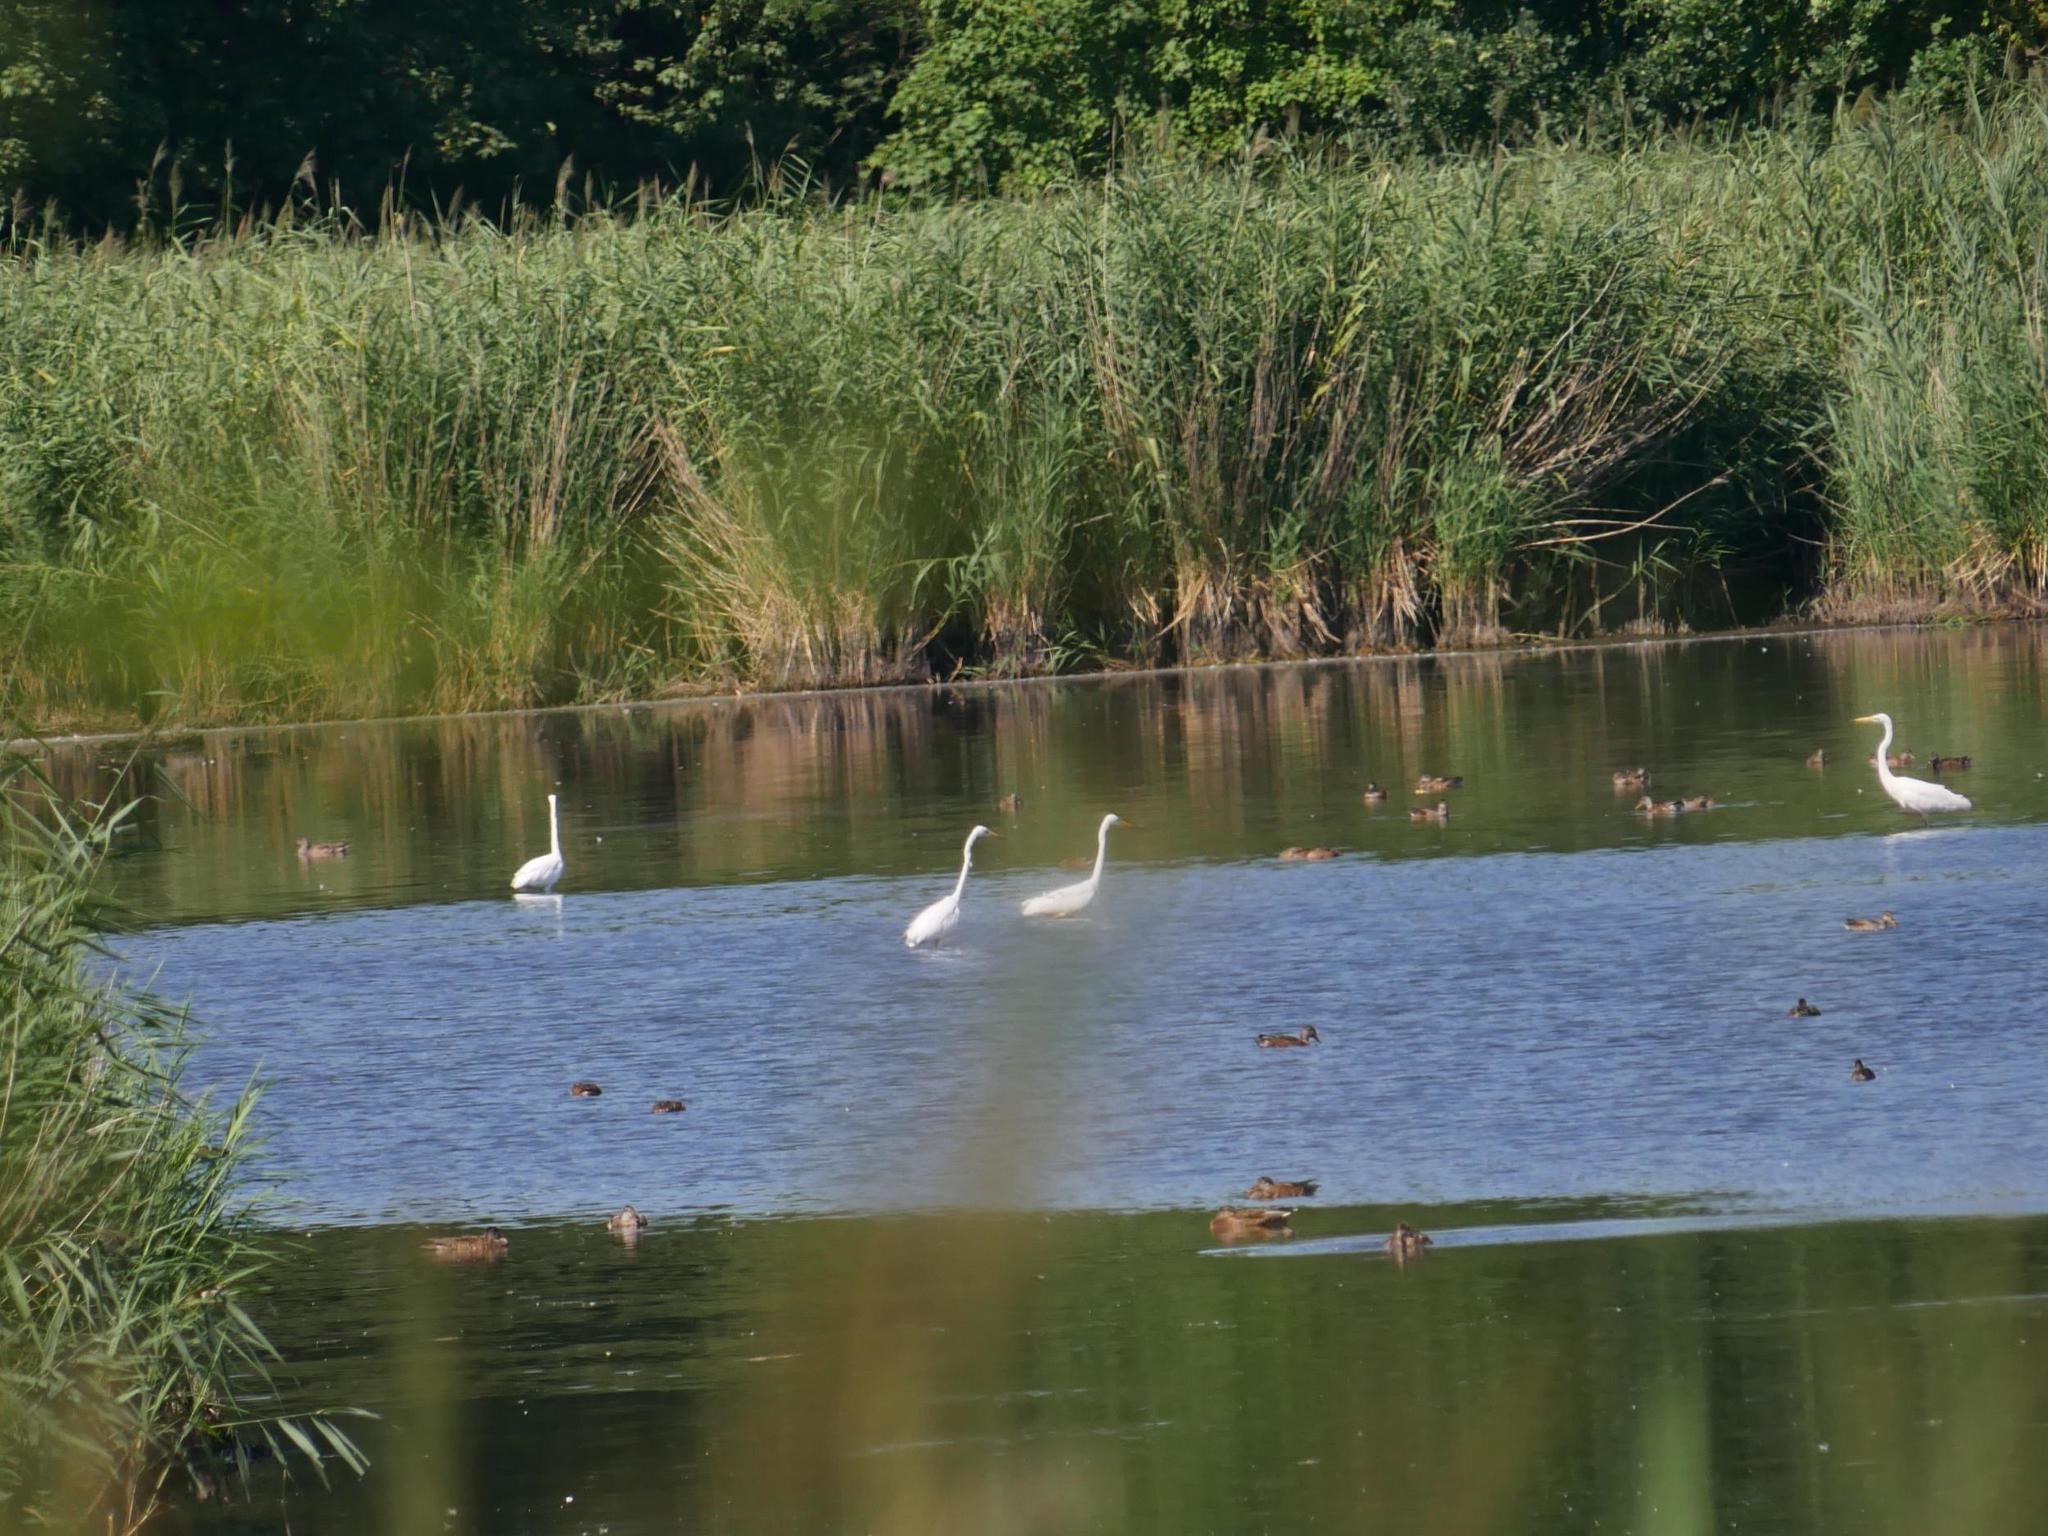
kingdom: Animalia
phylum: Chordata
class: Aves
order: Pelecaniformes
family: Ardeidae
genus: Ardea
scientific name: Ardea alba
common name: Great egret
